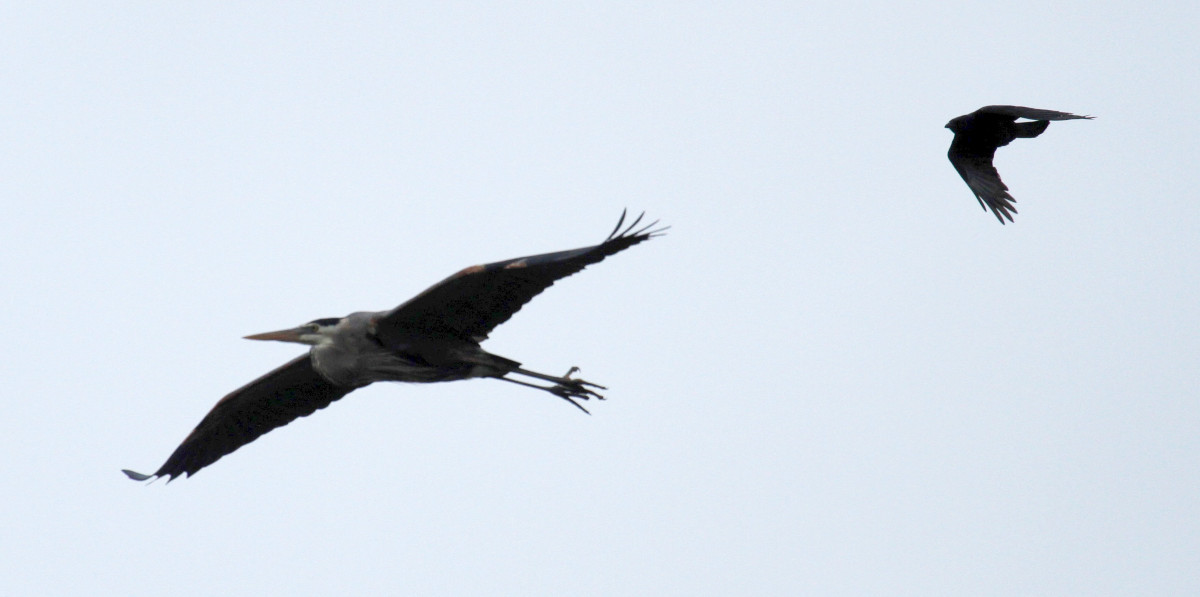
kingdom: Animalia
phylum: Chordata
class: Aves
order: Pelecaniformes
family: Ardeidae
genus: Ardea
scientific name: Ardea herodias
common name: Great blue heron
